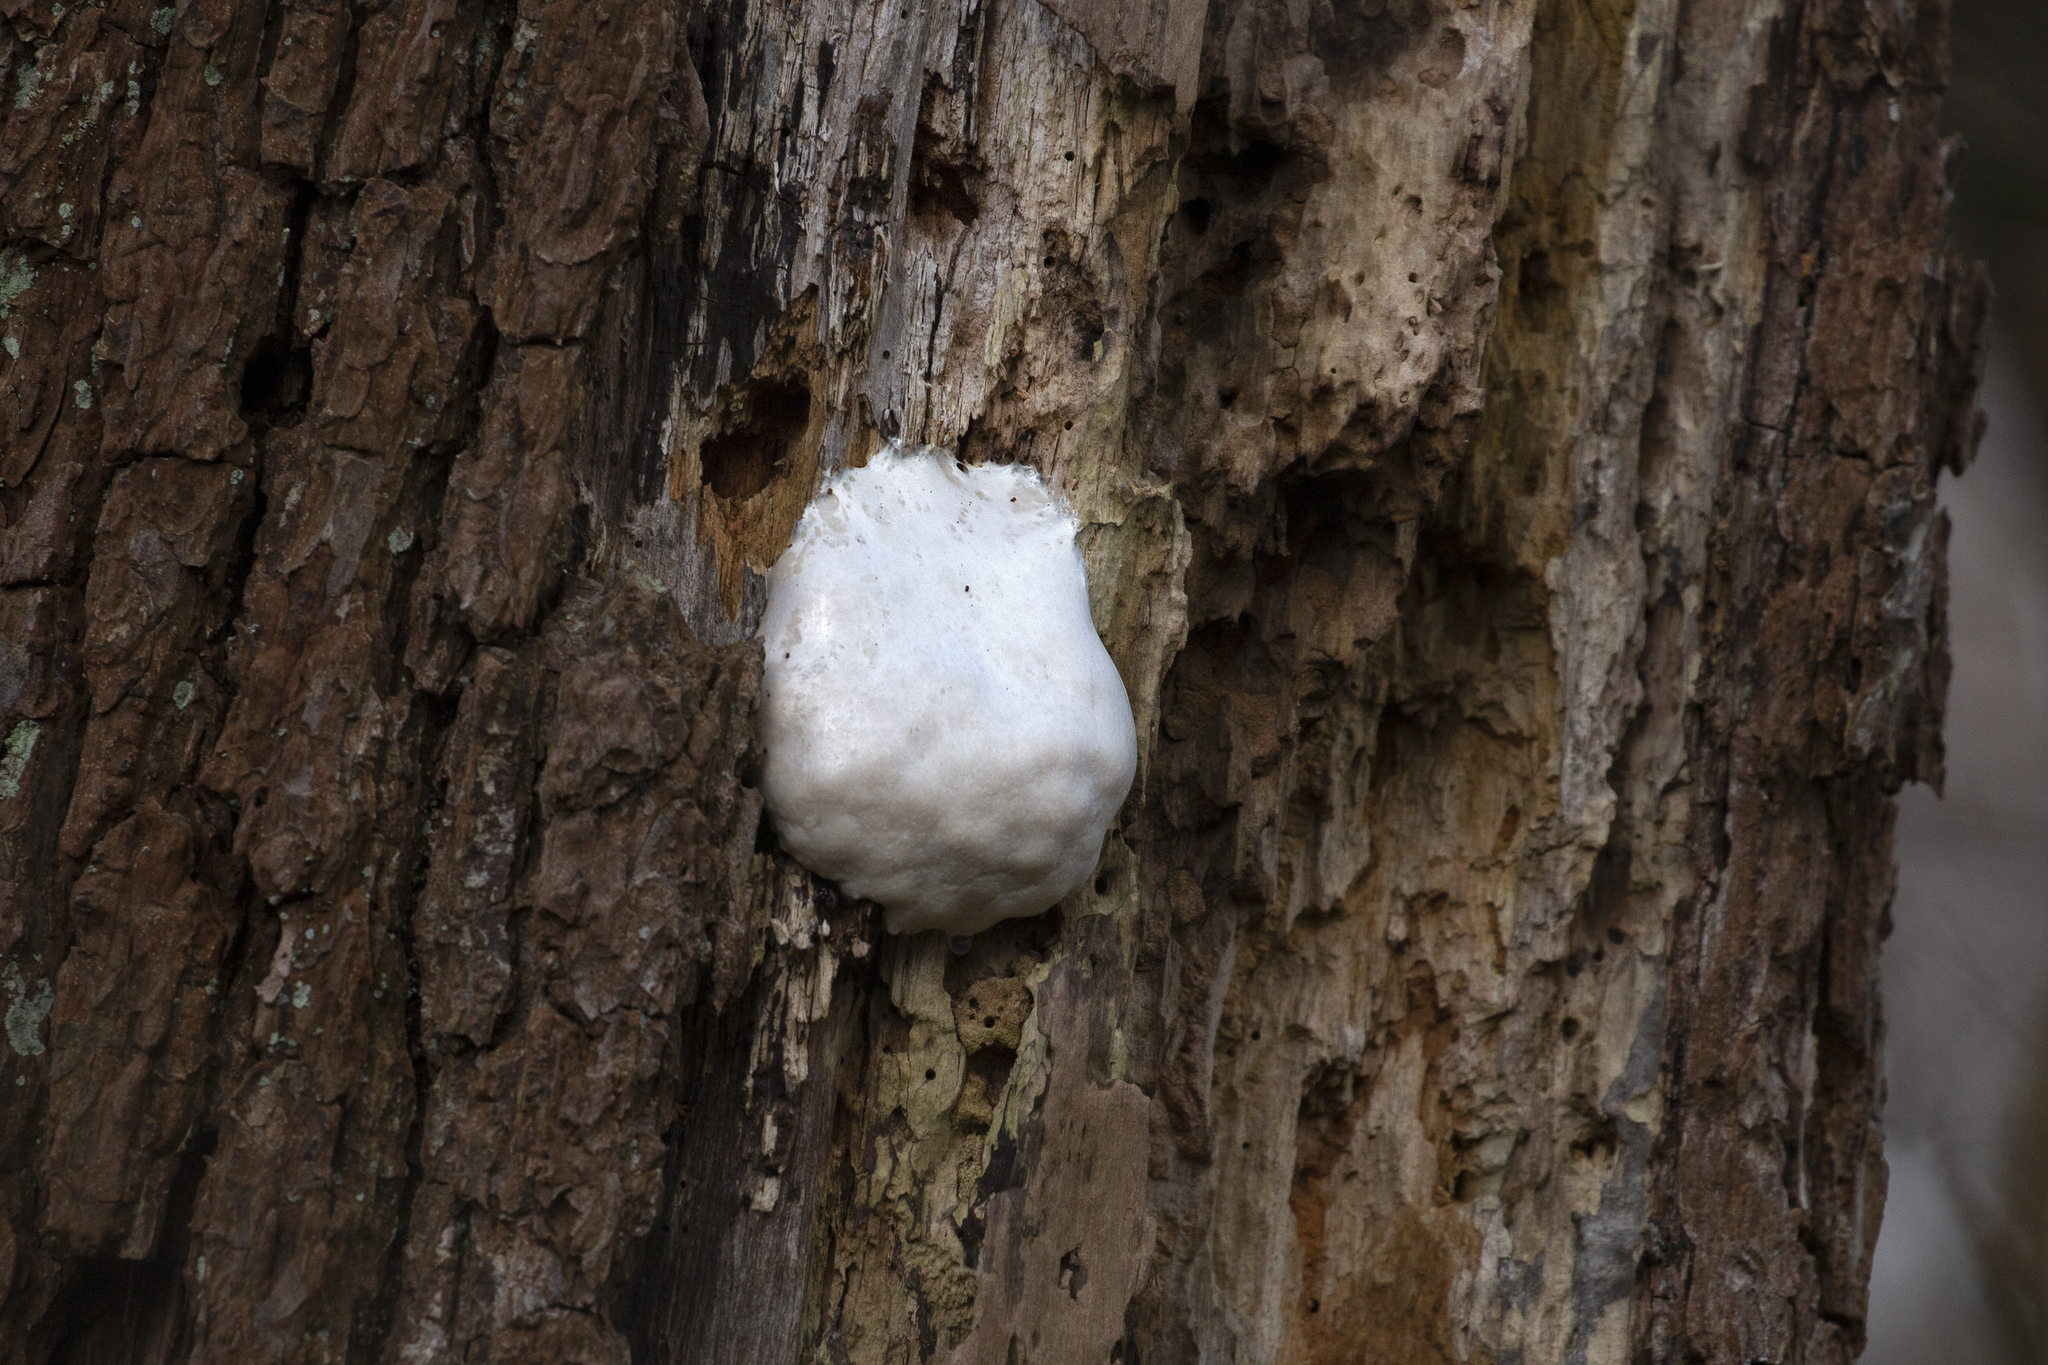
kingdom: Protozoa
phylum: Mycetozoa
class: Myxomycetes
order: Cribrariales
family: Tubiferaceae
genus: Reticularia
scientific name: Reticularia lycoperdon
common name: False puffball
